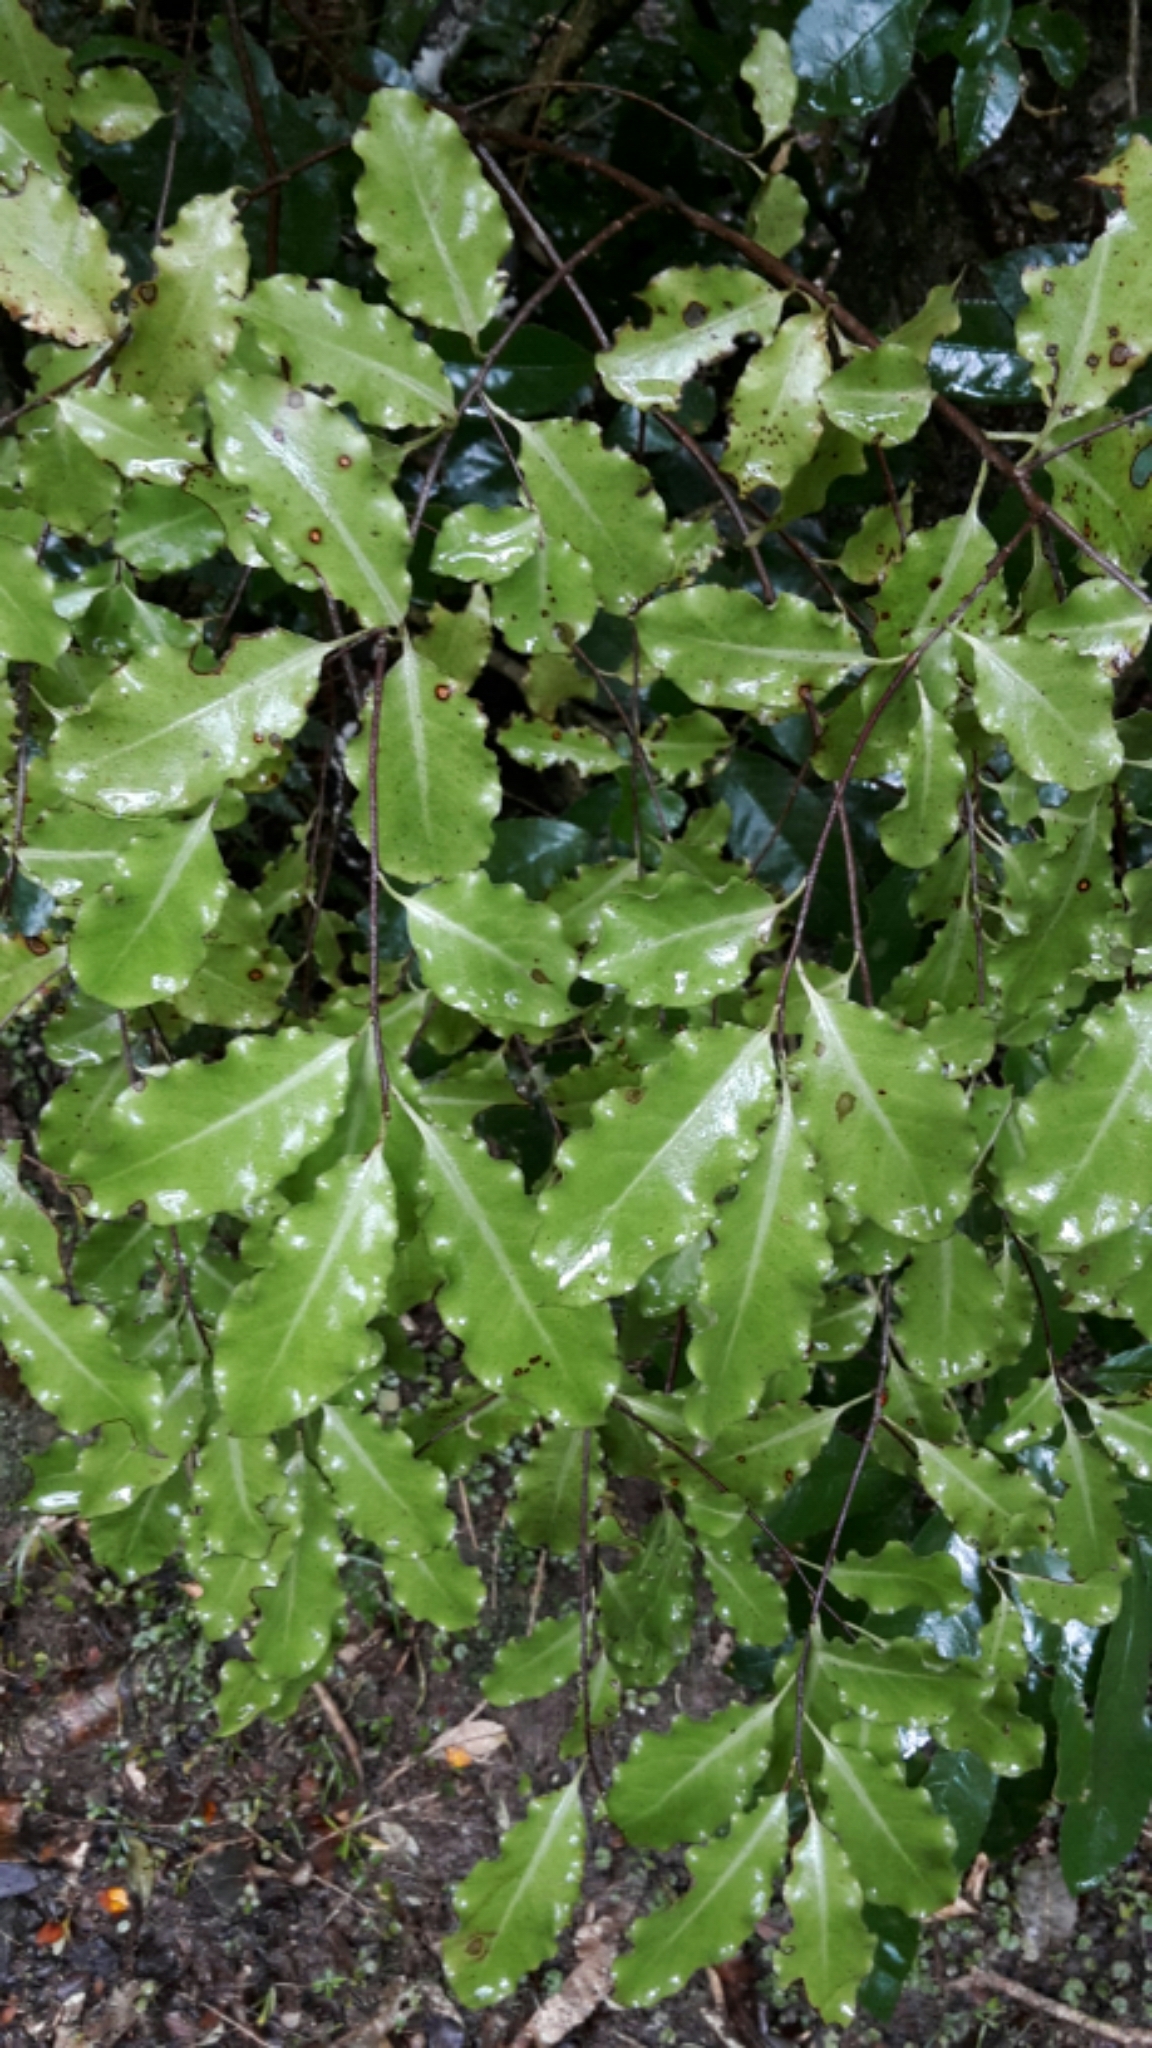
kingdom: Plantae
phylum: Tracheophyta
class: Magnoliopsida
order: Apiales
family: Pittosporaceae
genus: Pittosporum
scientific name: Pittosporum tenuifolium
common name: Kohuhu
